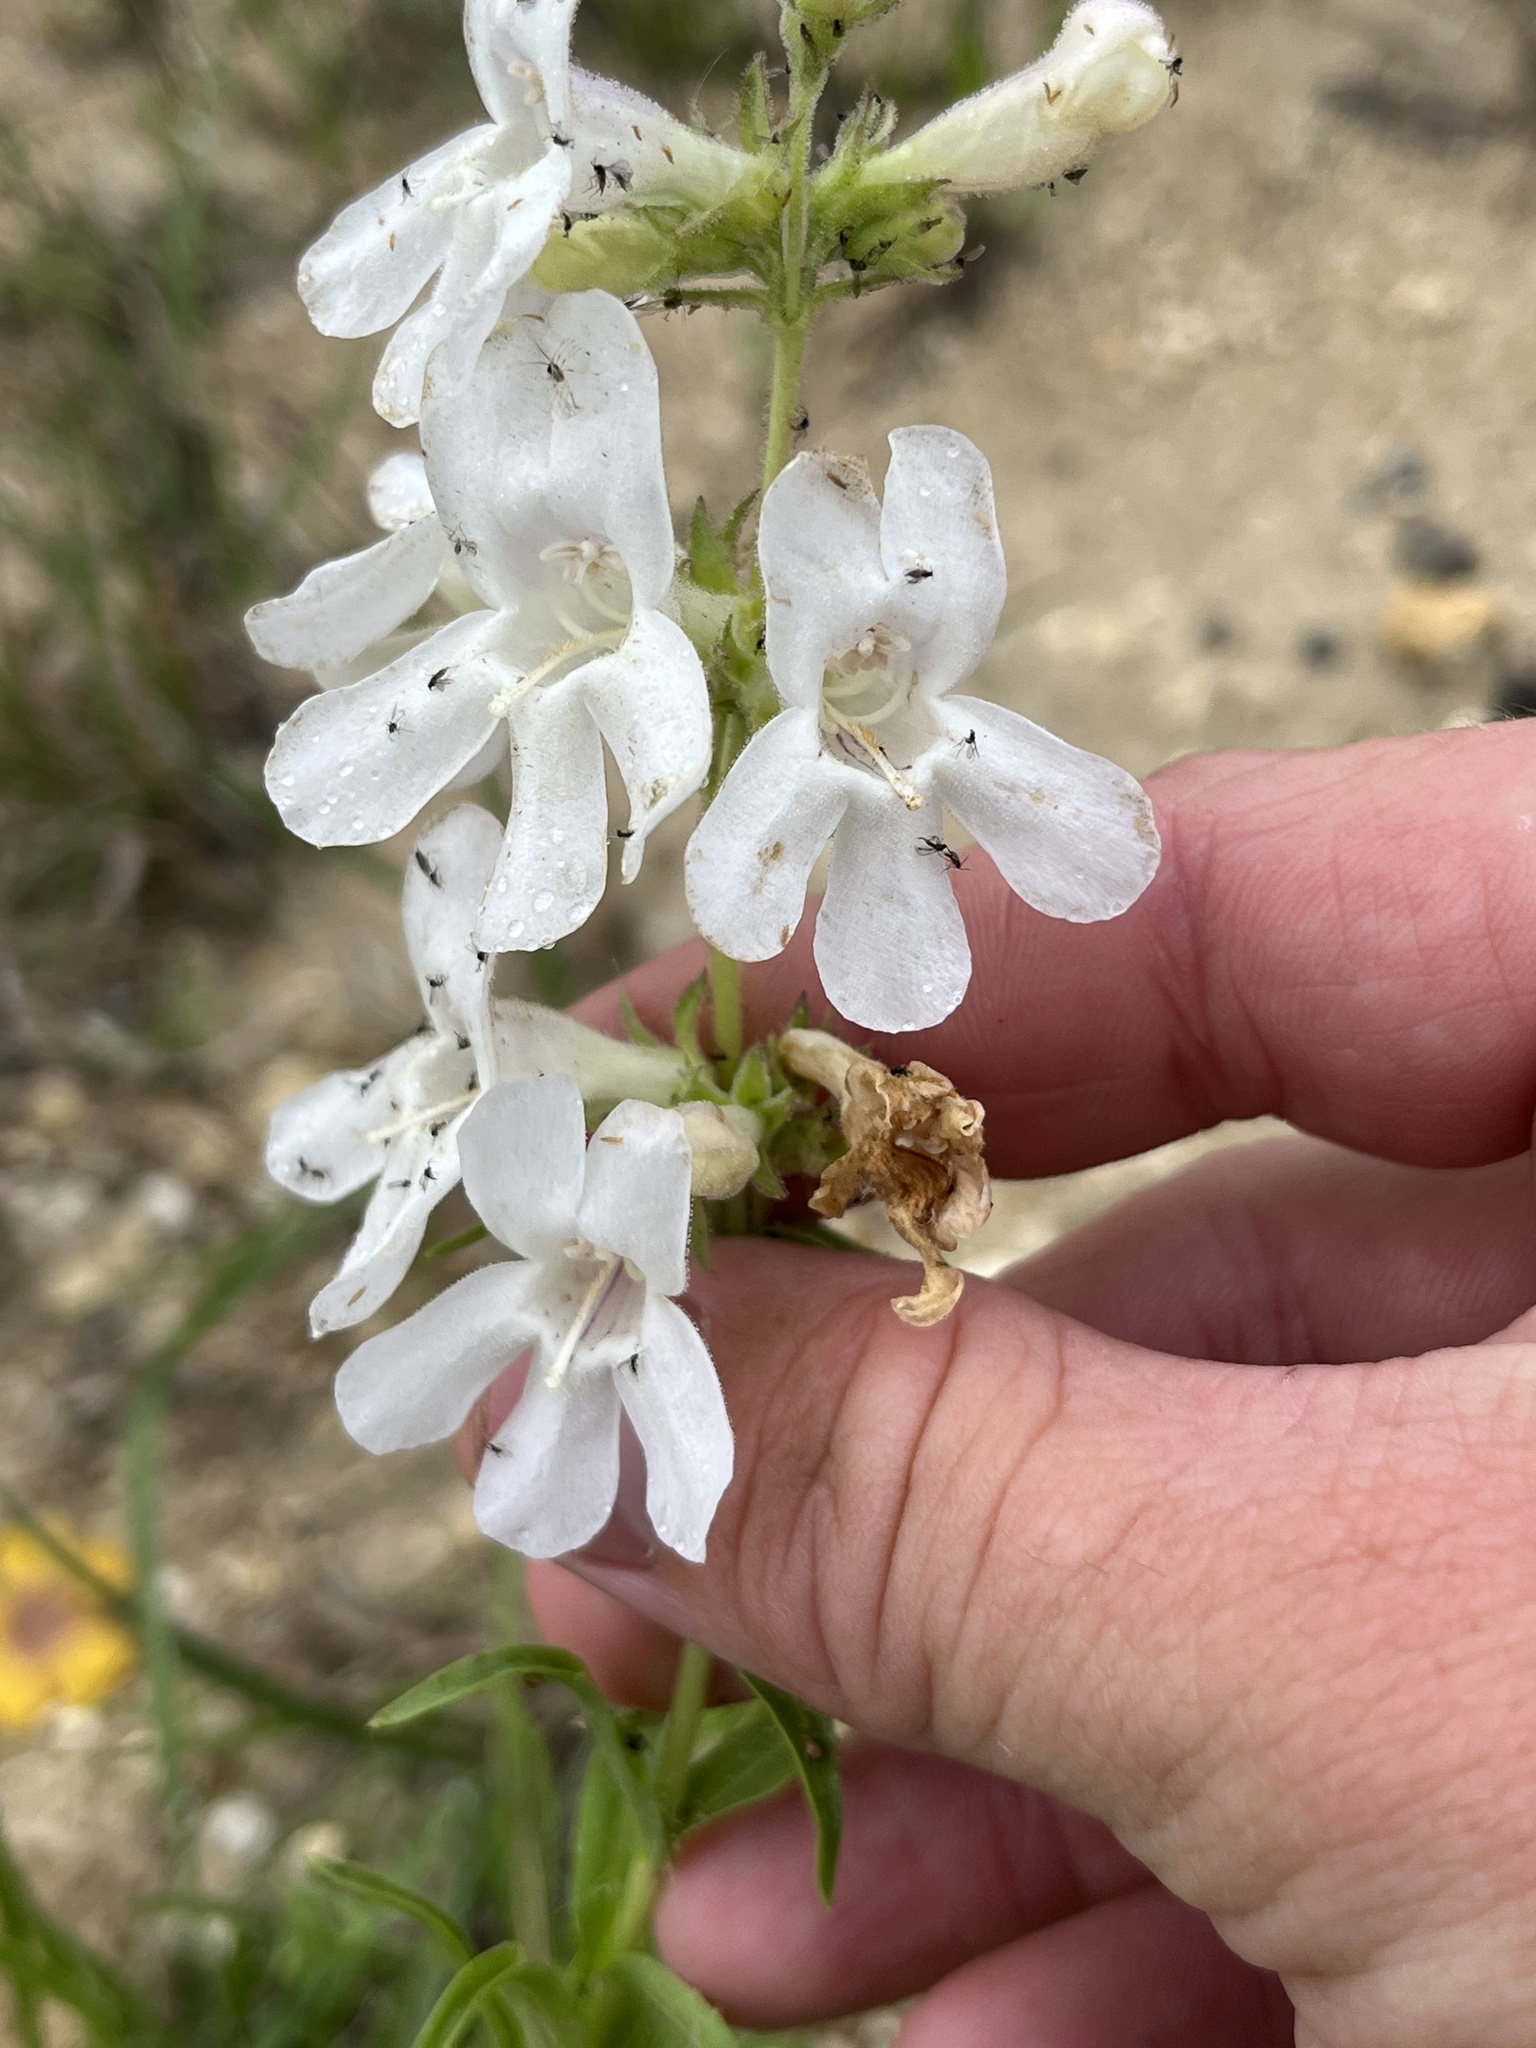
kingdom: Plantae
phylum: Tracheophyta
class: Magnoliopsida
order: Lamiales
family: Plantaginaceae
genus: Penstemon
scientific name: Penstemon guadalupensis
